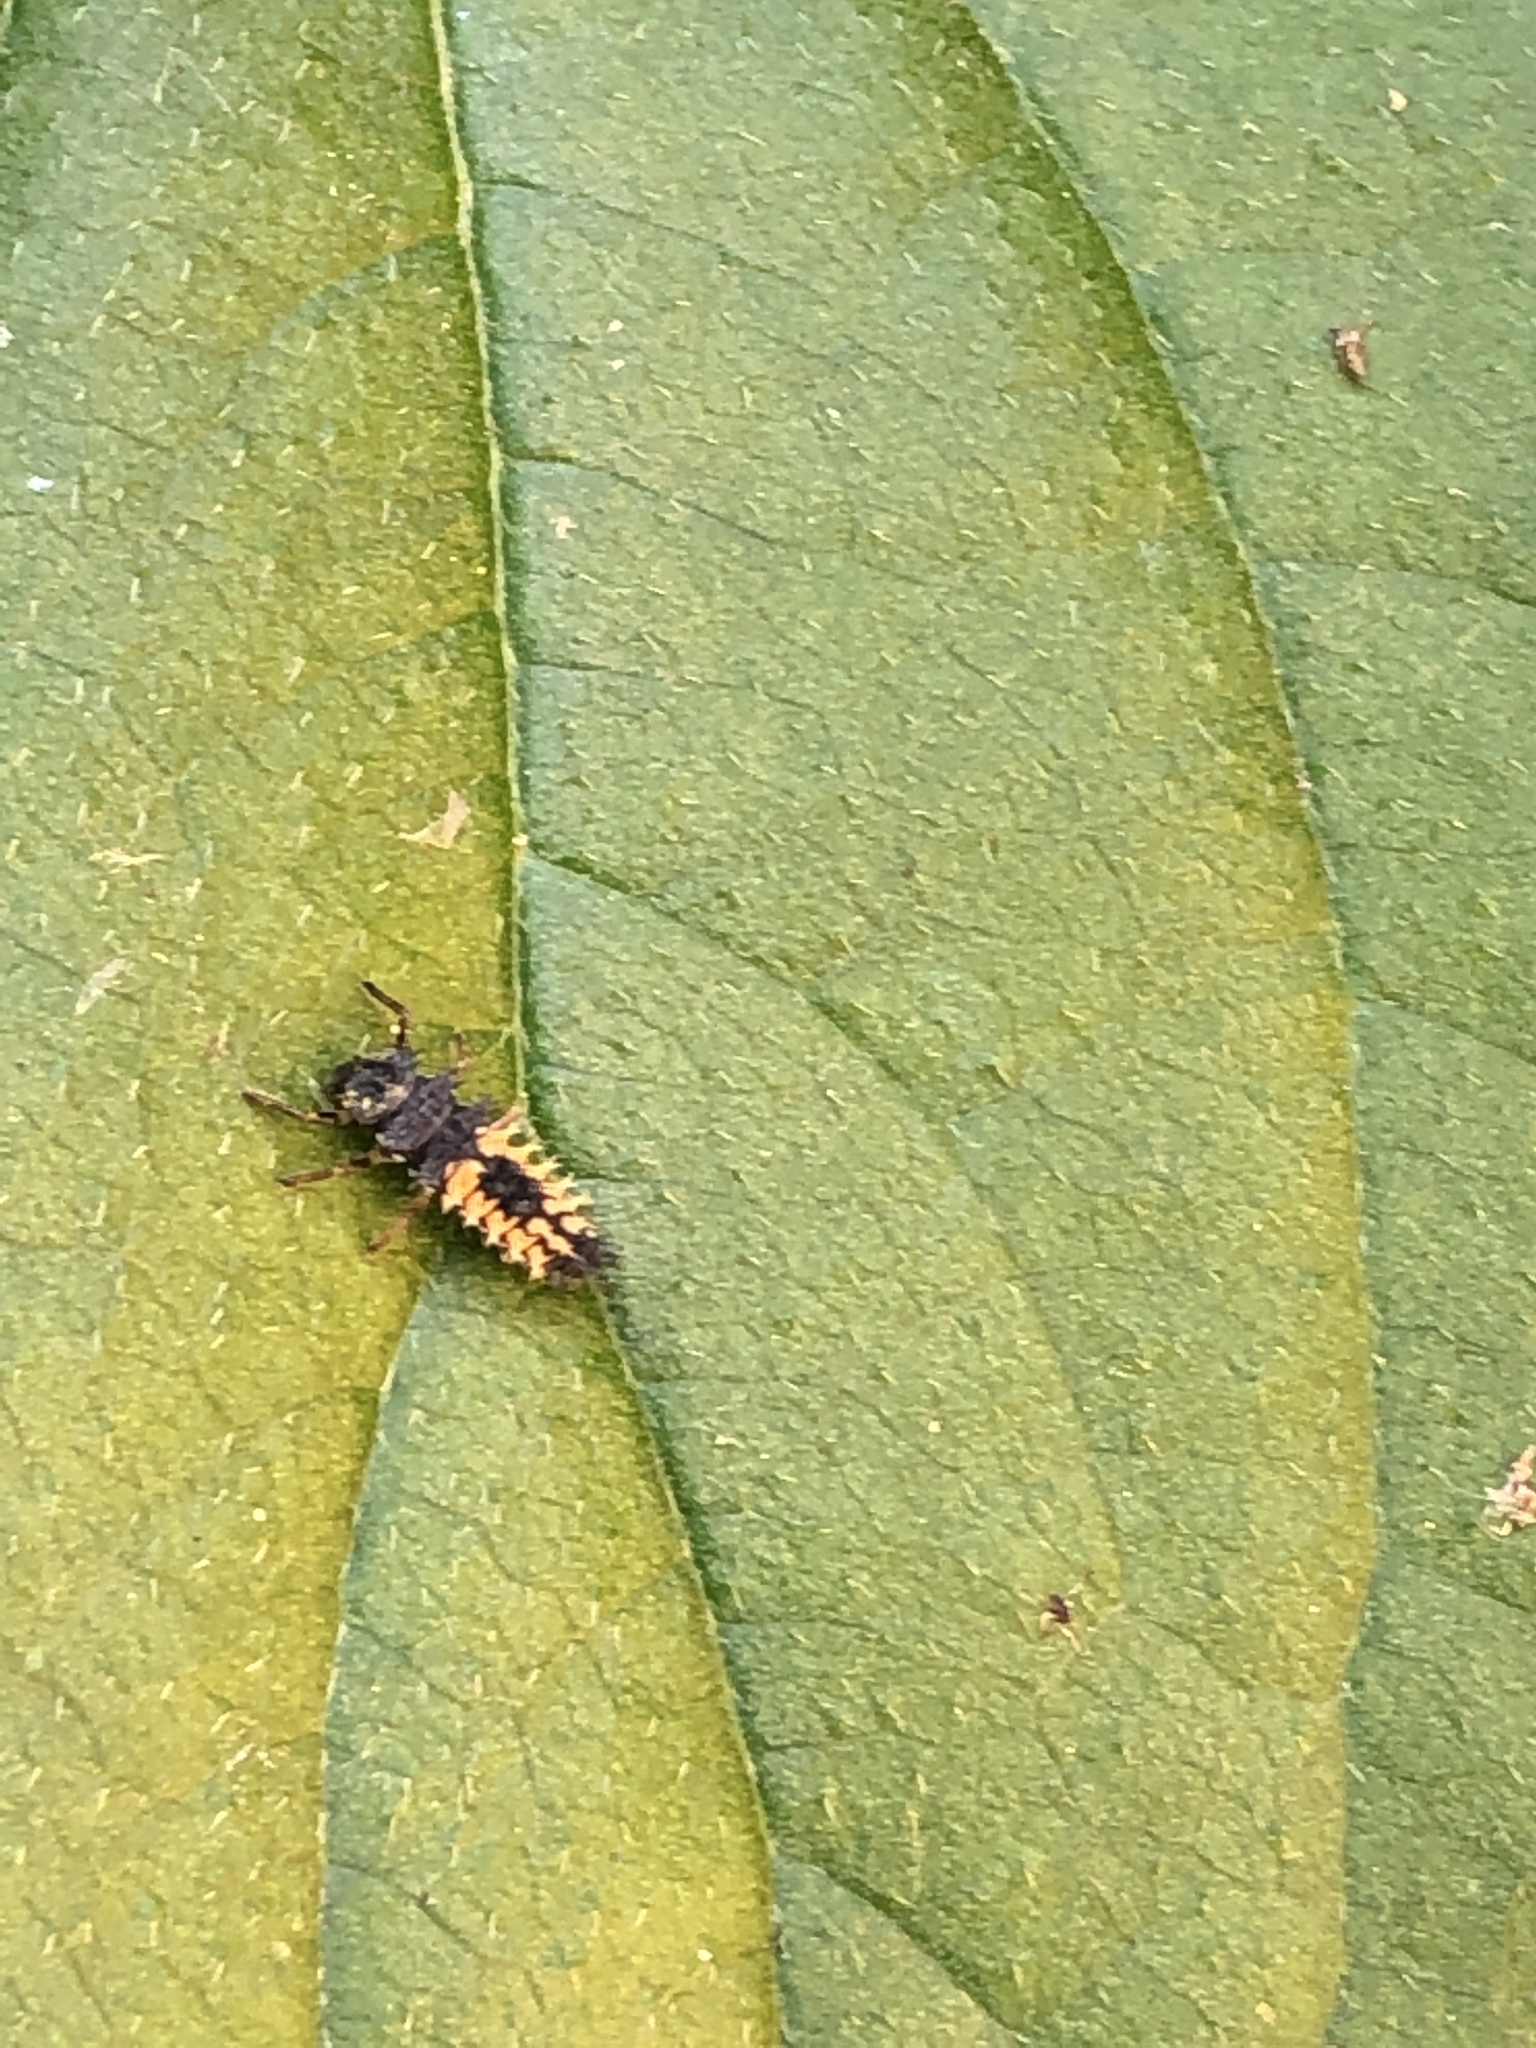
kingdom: Animalia
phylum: Arthropoda
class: Insecta
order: Coleoptera
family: Coccinellidae
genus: Harmonia
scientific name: Harmonia axyridis
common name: Harlequin ladybird
